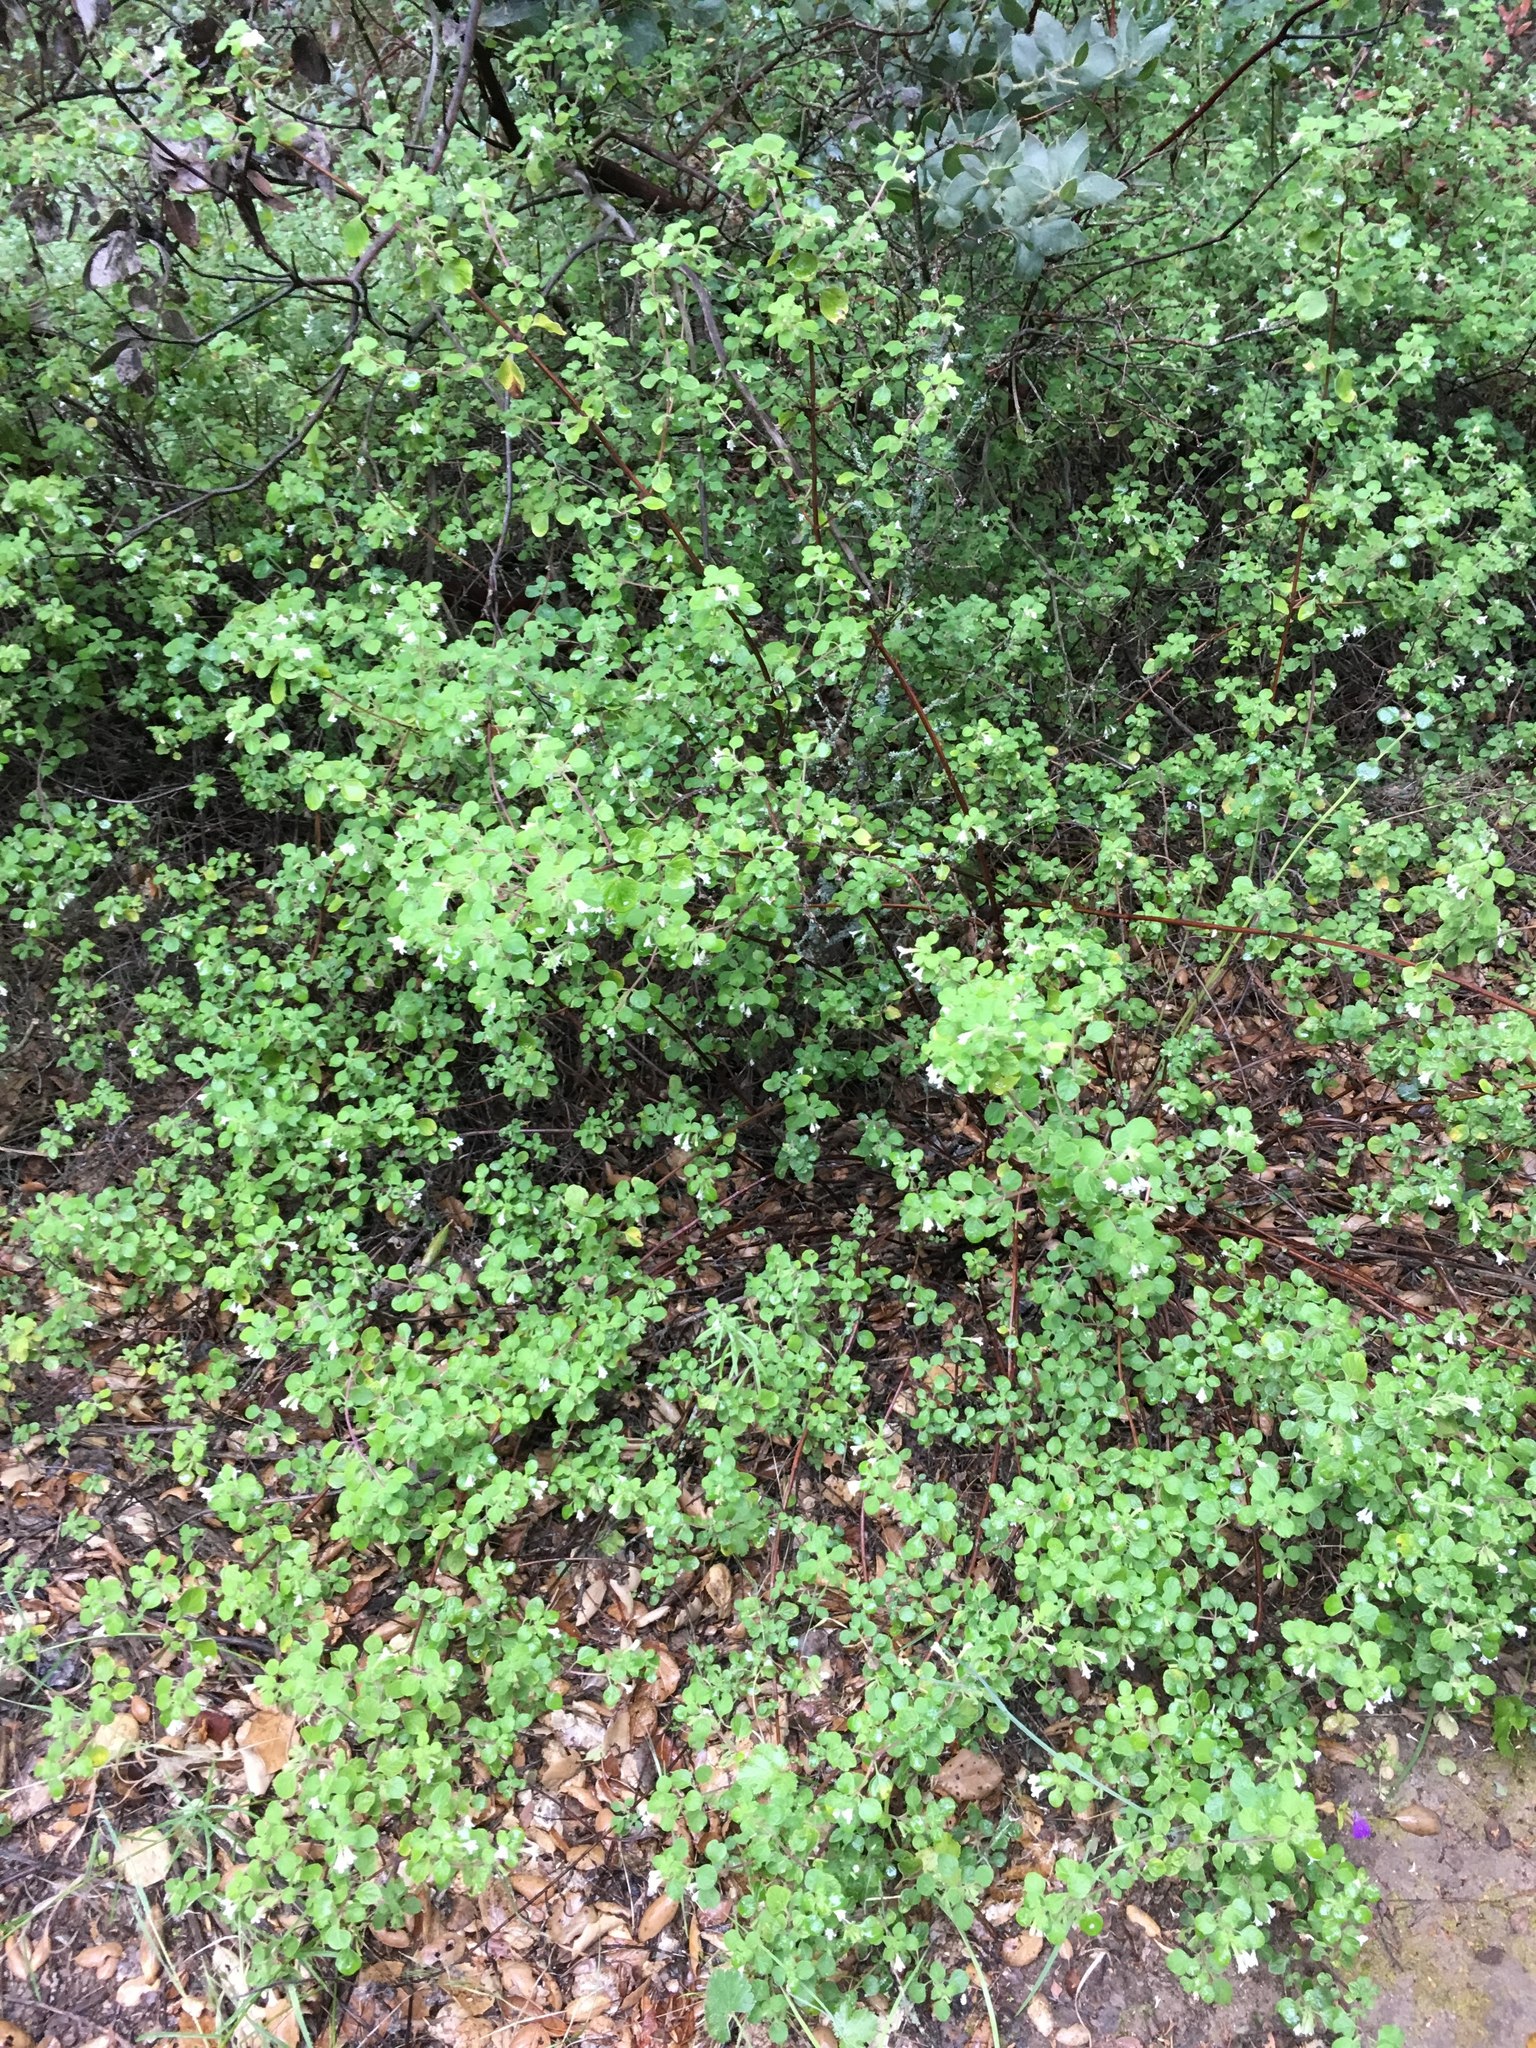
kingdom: Plantae
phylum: Tracheophyta
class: Magnoliopsida
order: Lamiales
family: Lamiaceae
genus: Clinopodium
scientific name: Clinopodium chandleri
